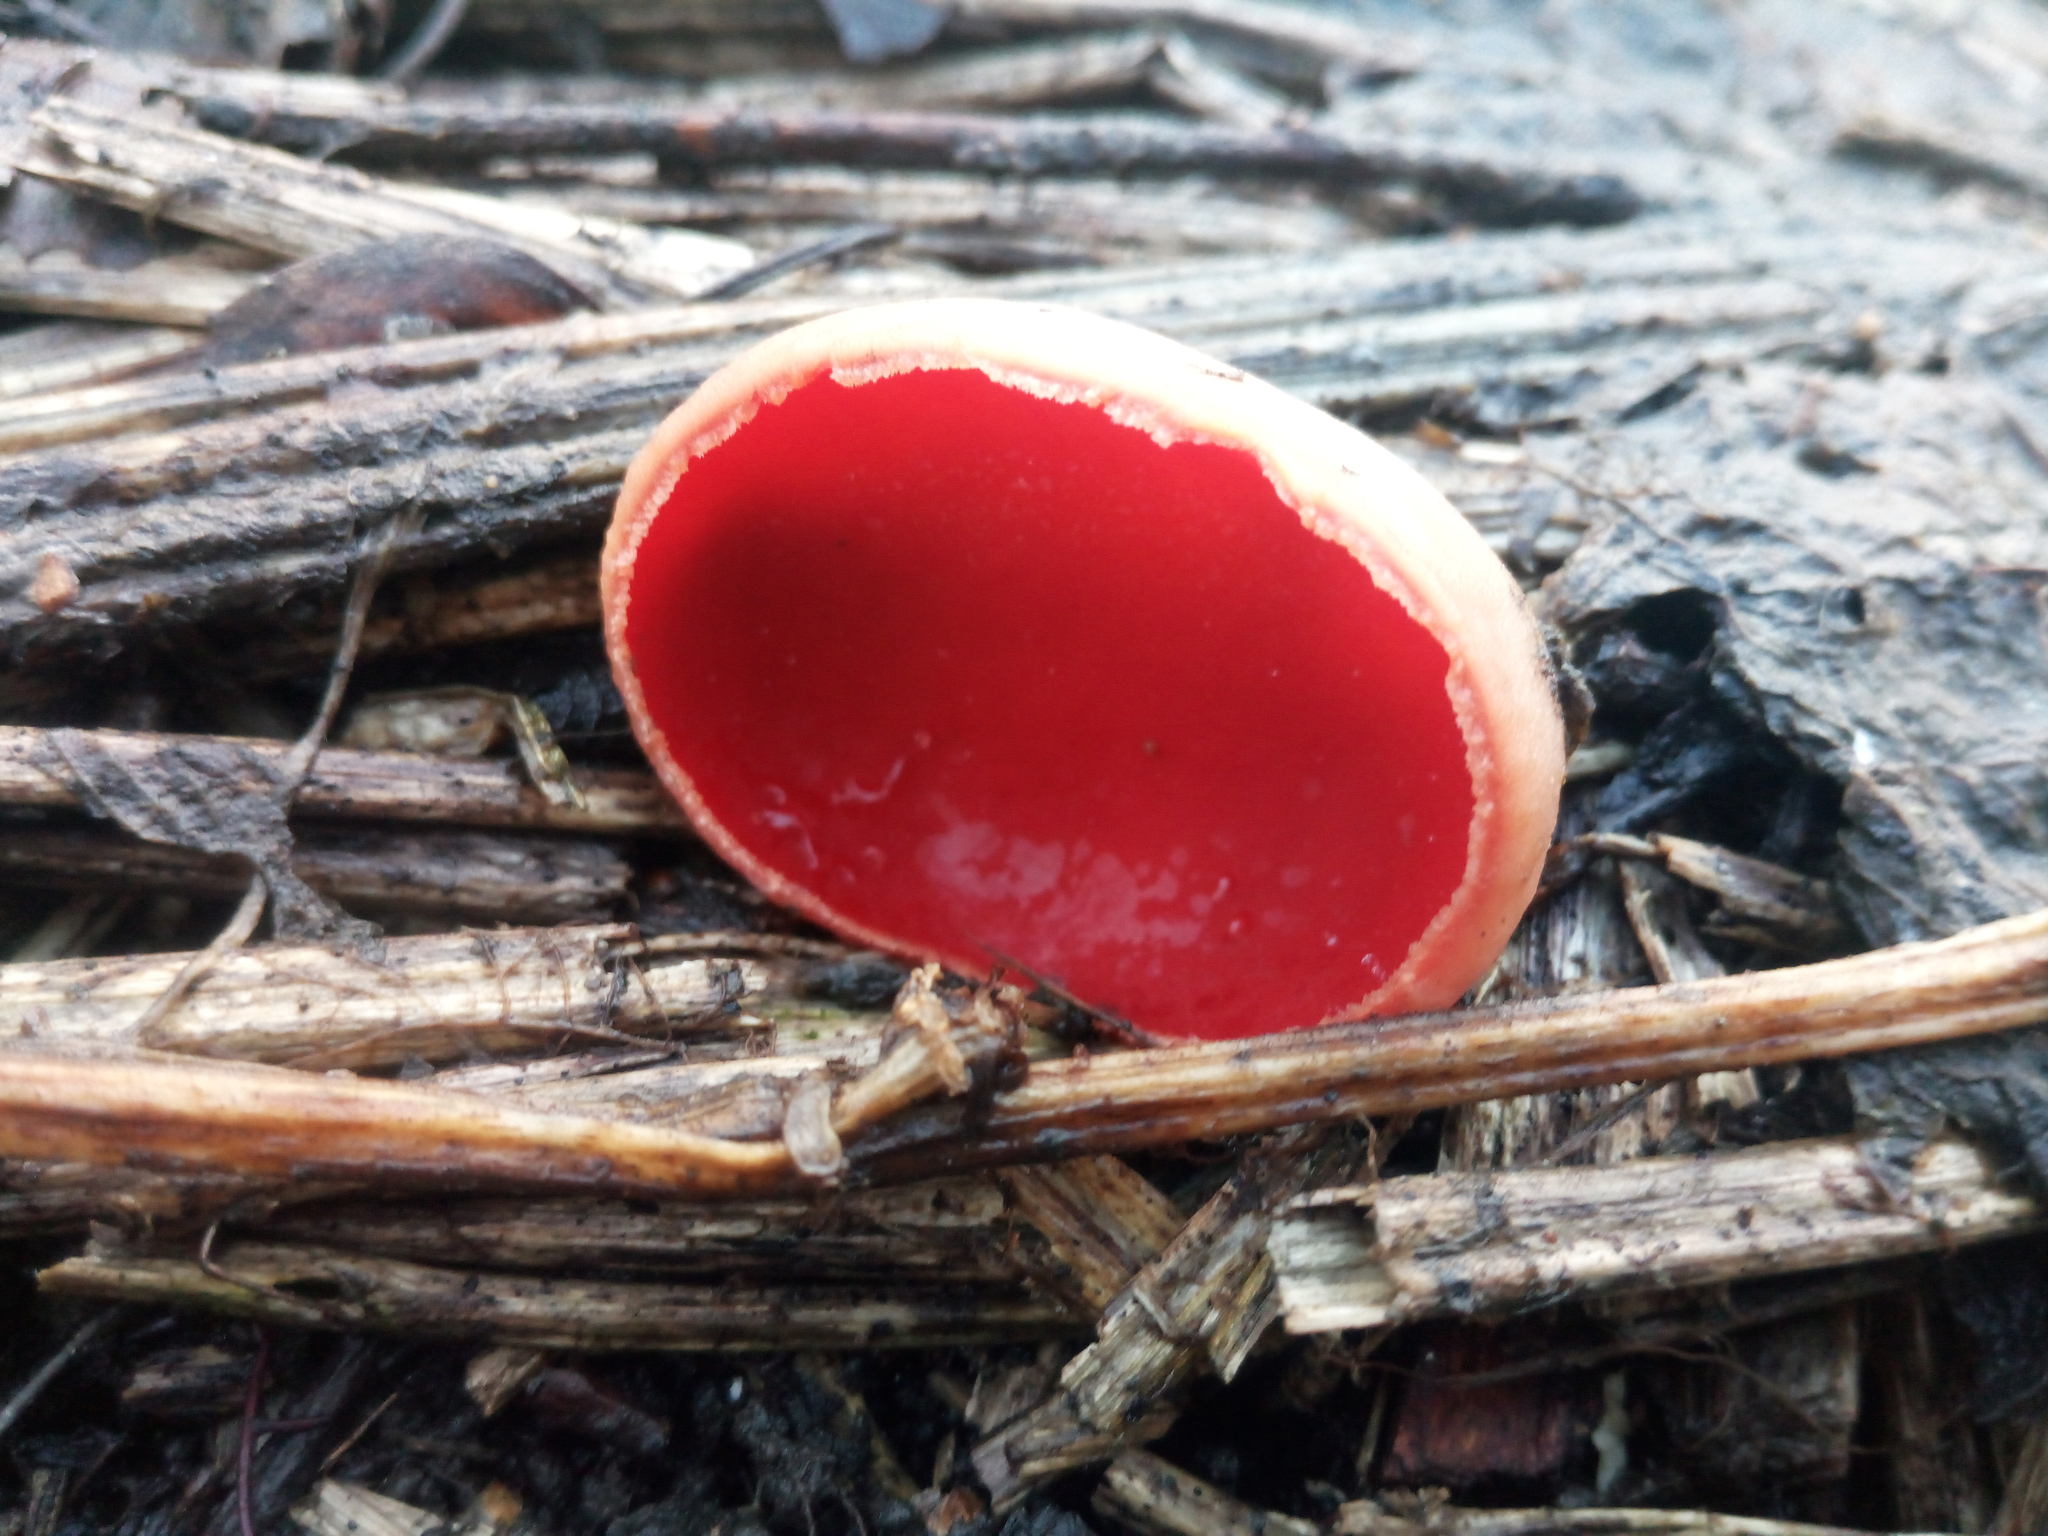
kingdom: Fungi
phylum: Ascomycota
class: Pezizomycetes
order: Pezizales
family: Sarcoscyphaceae
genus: Sarcoscypha
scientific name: Sarcoscypha
